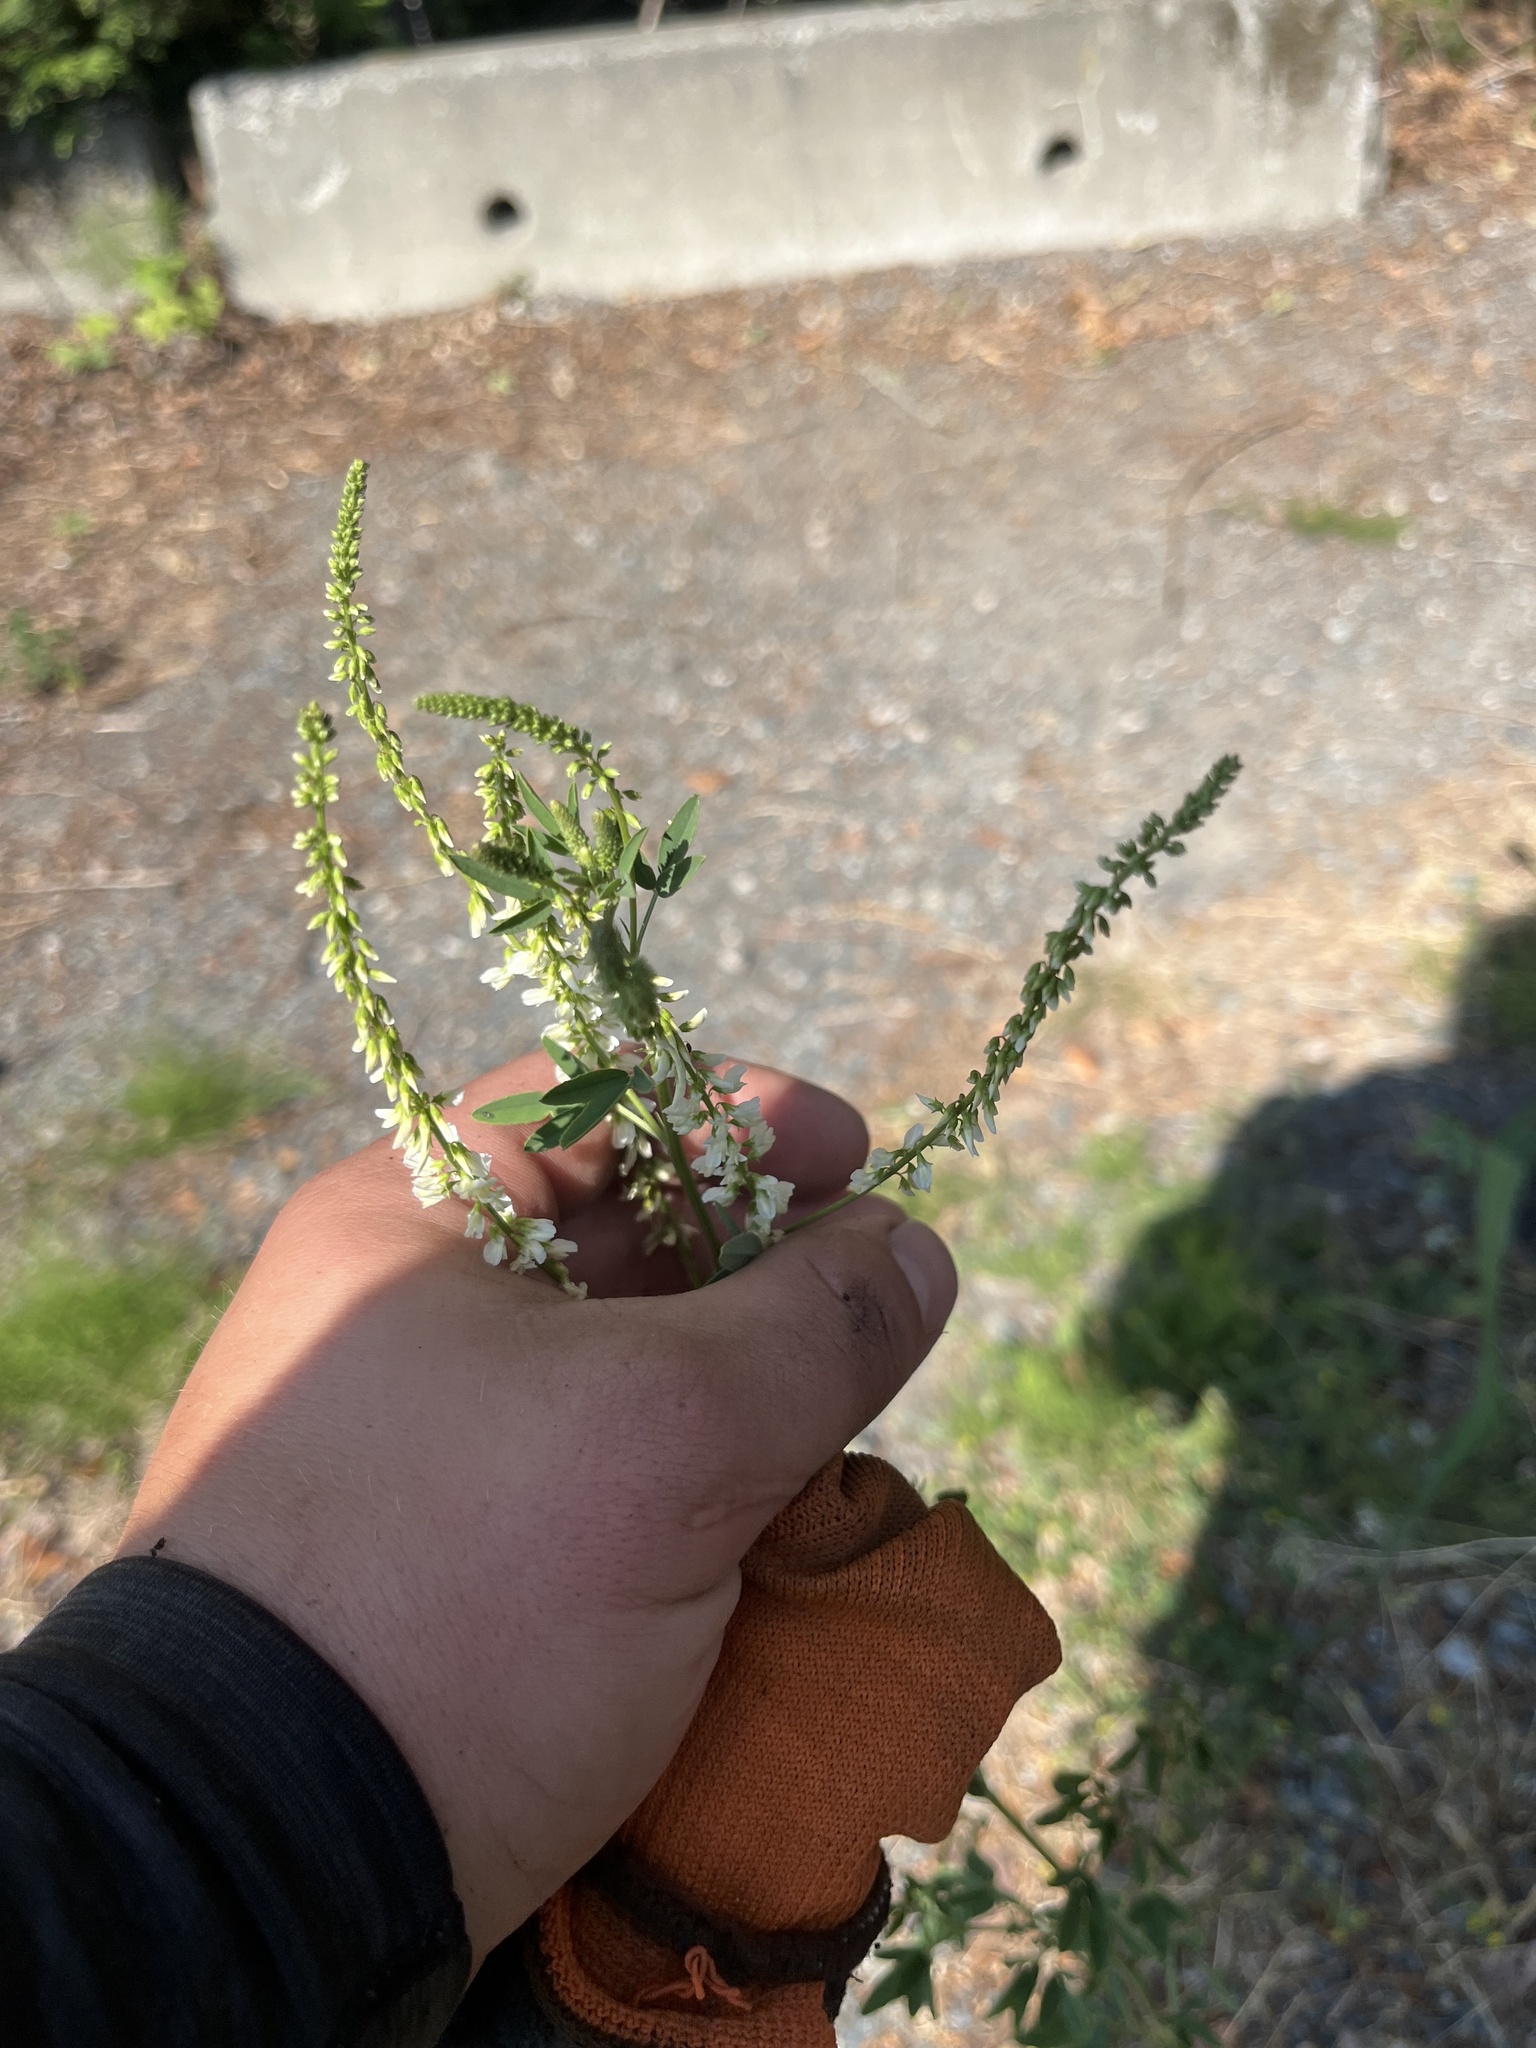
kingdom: Plantae
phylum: Tracheophyta
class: Magnoliopsida
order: Fabales
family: Fabaceae
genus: Melilotus
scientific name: Melilotus albus
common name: White melilot
